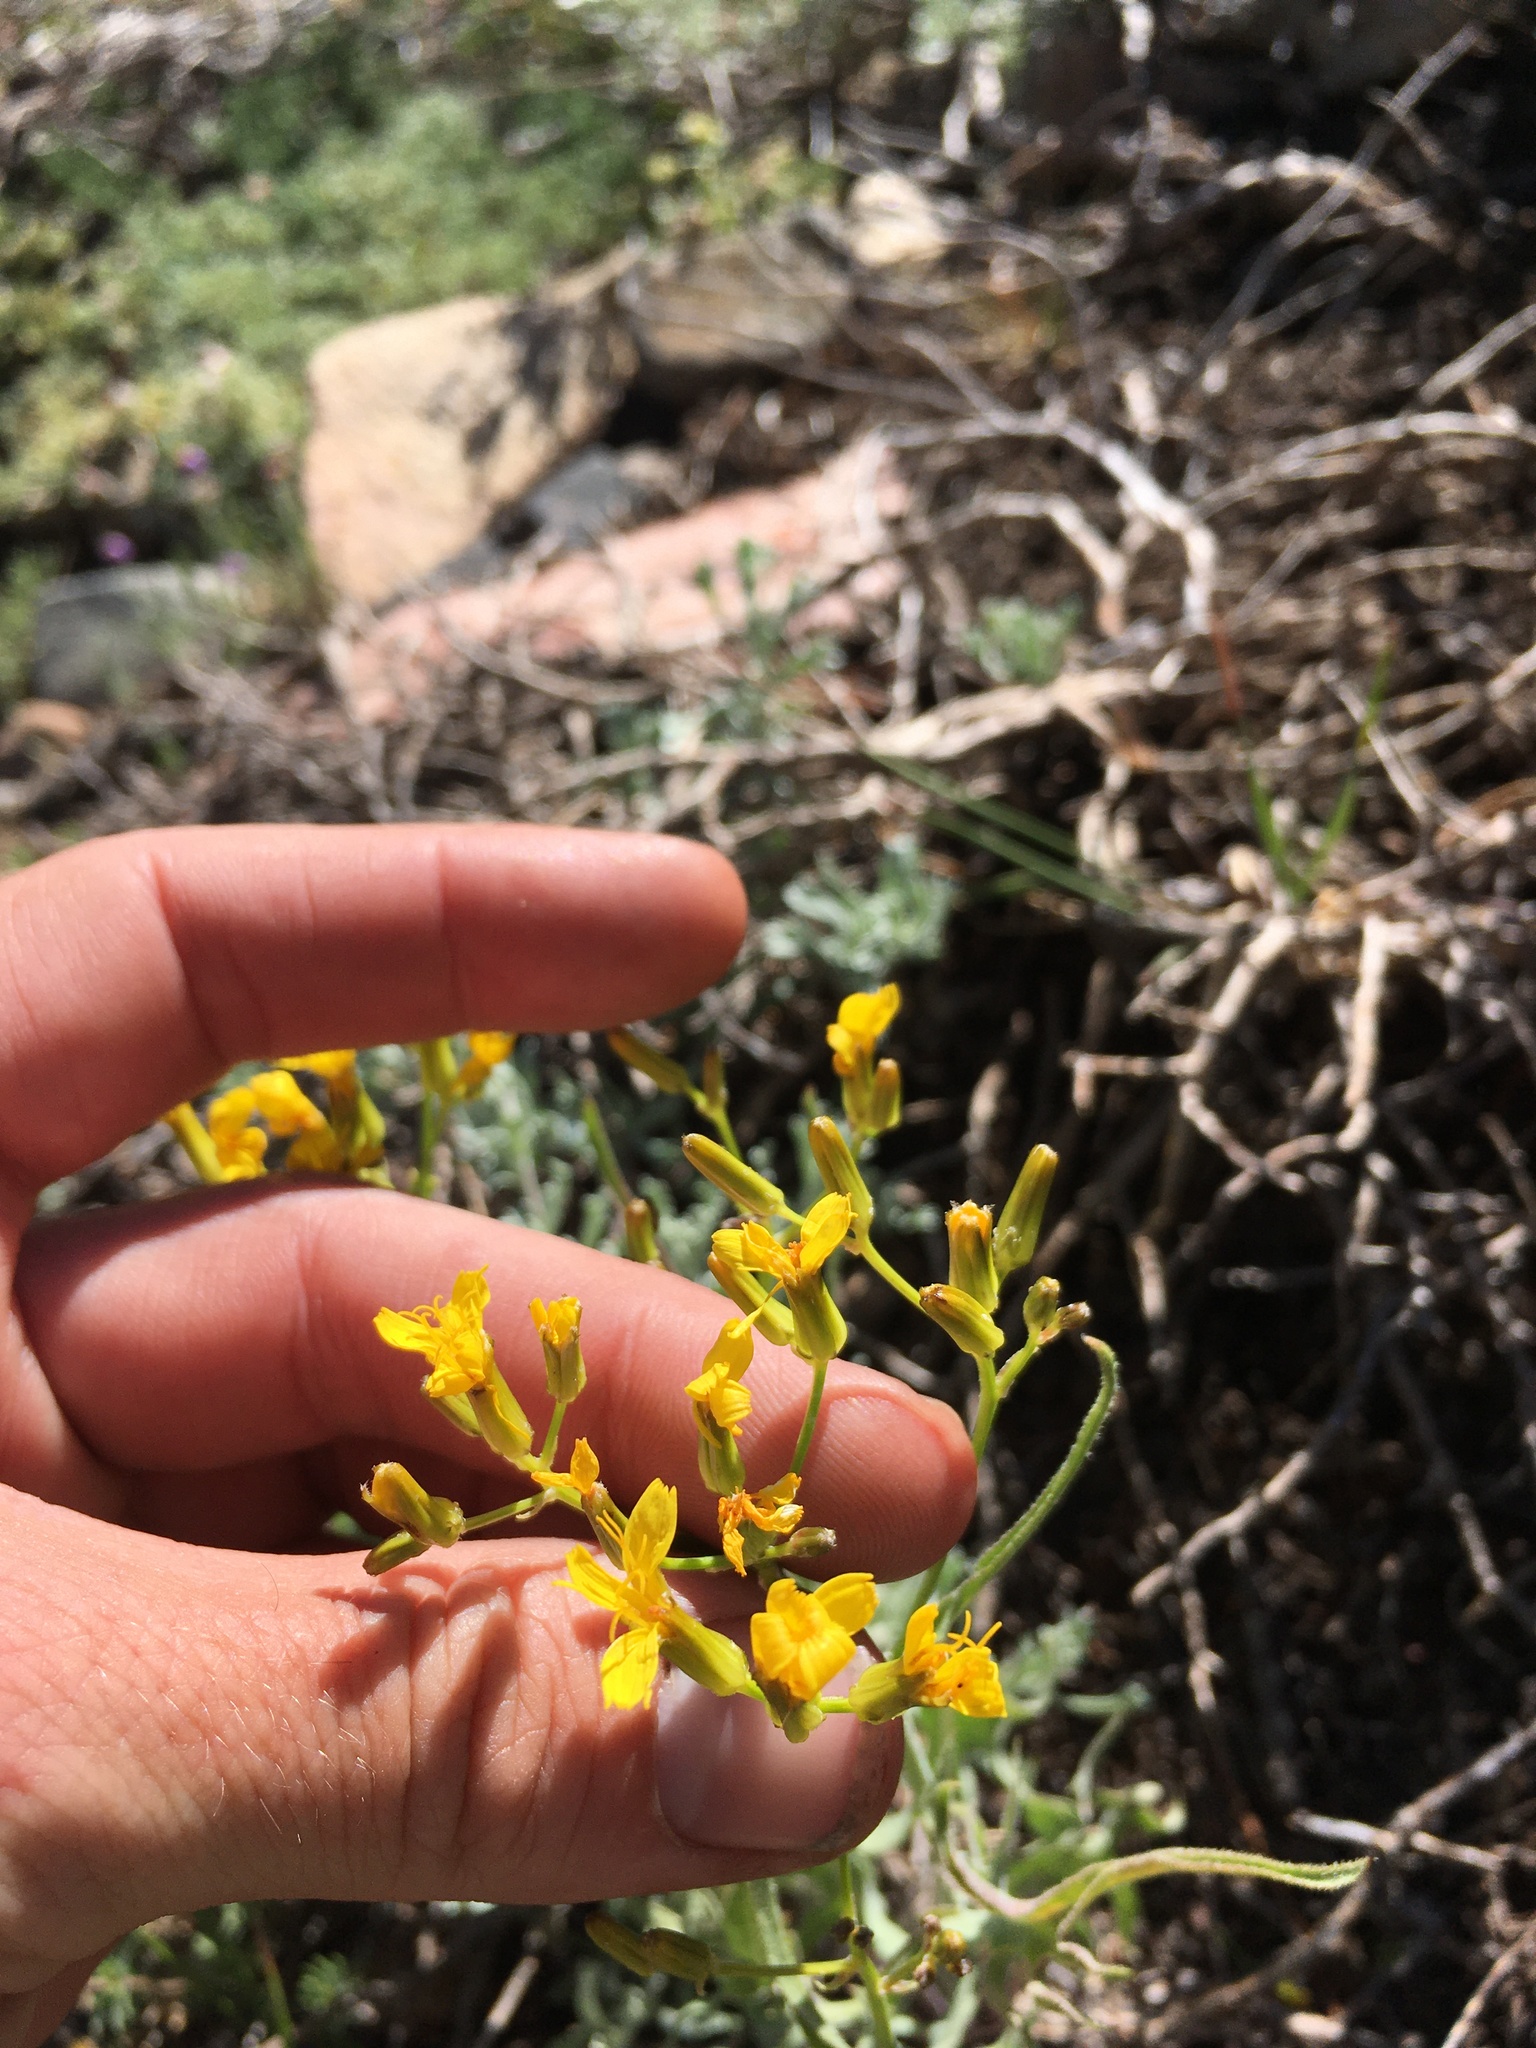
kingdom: Plantae
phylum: Tracheophyta
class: Magnoliopsida
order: Asterales
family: Asteraceae
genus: Crepis
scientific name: Crepis acuminata
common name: Longleaf hawk's-beard
